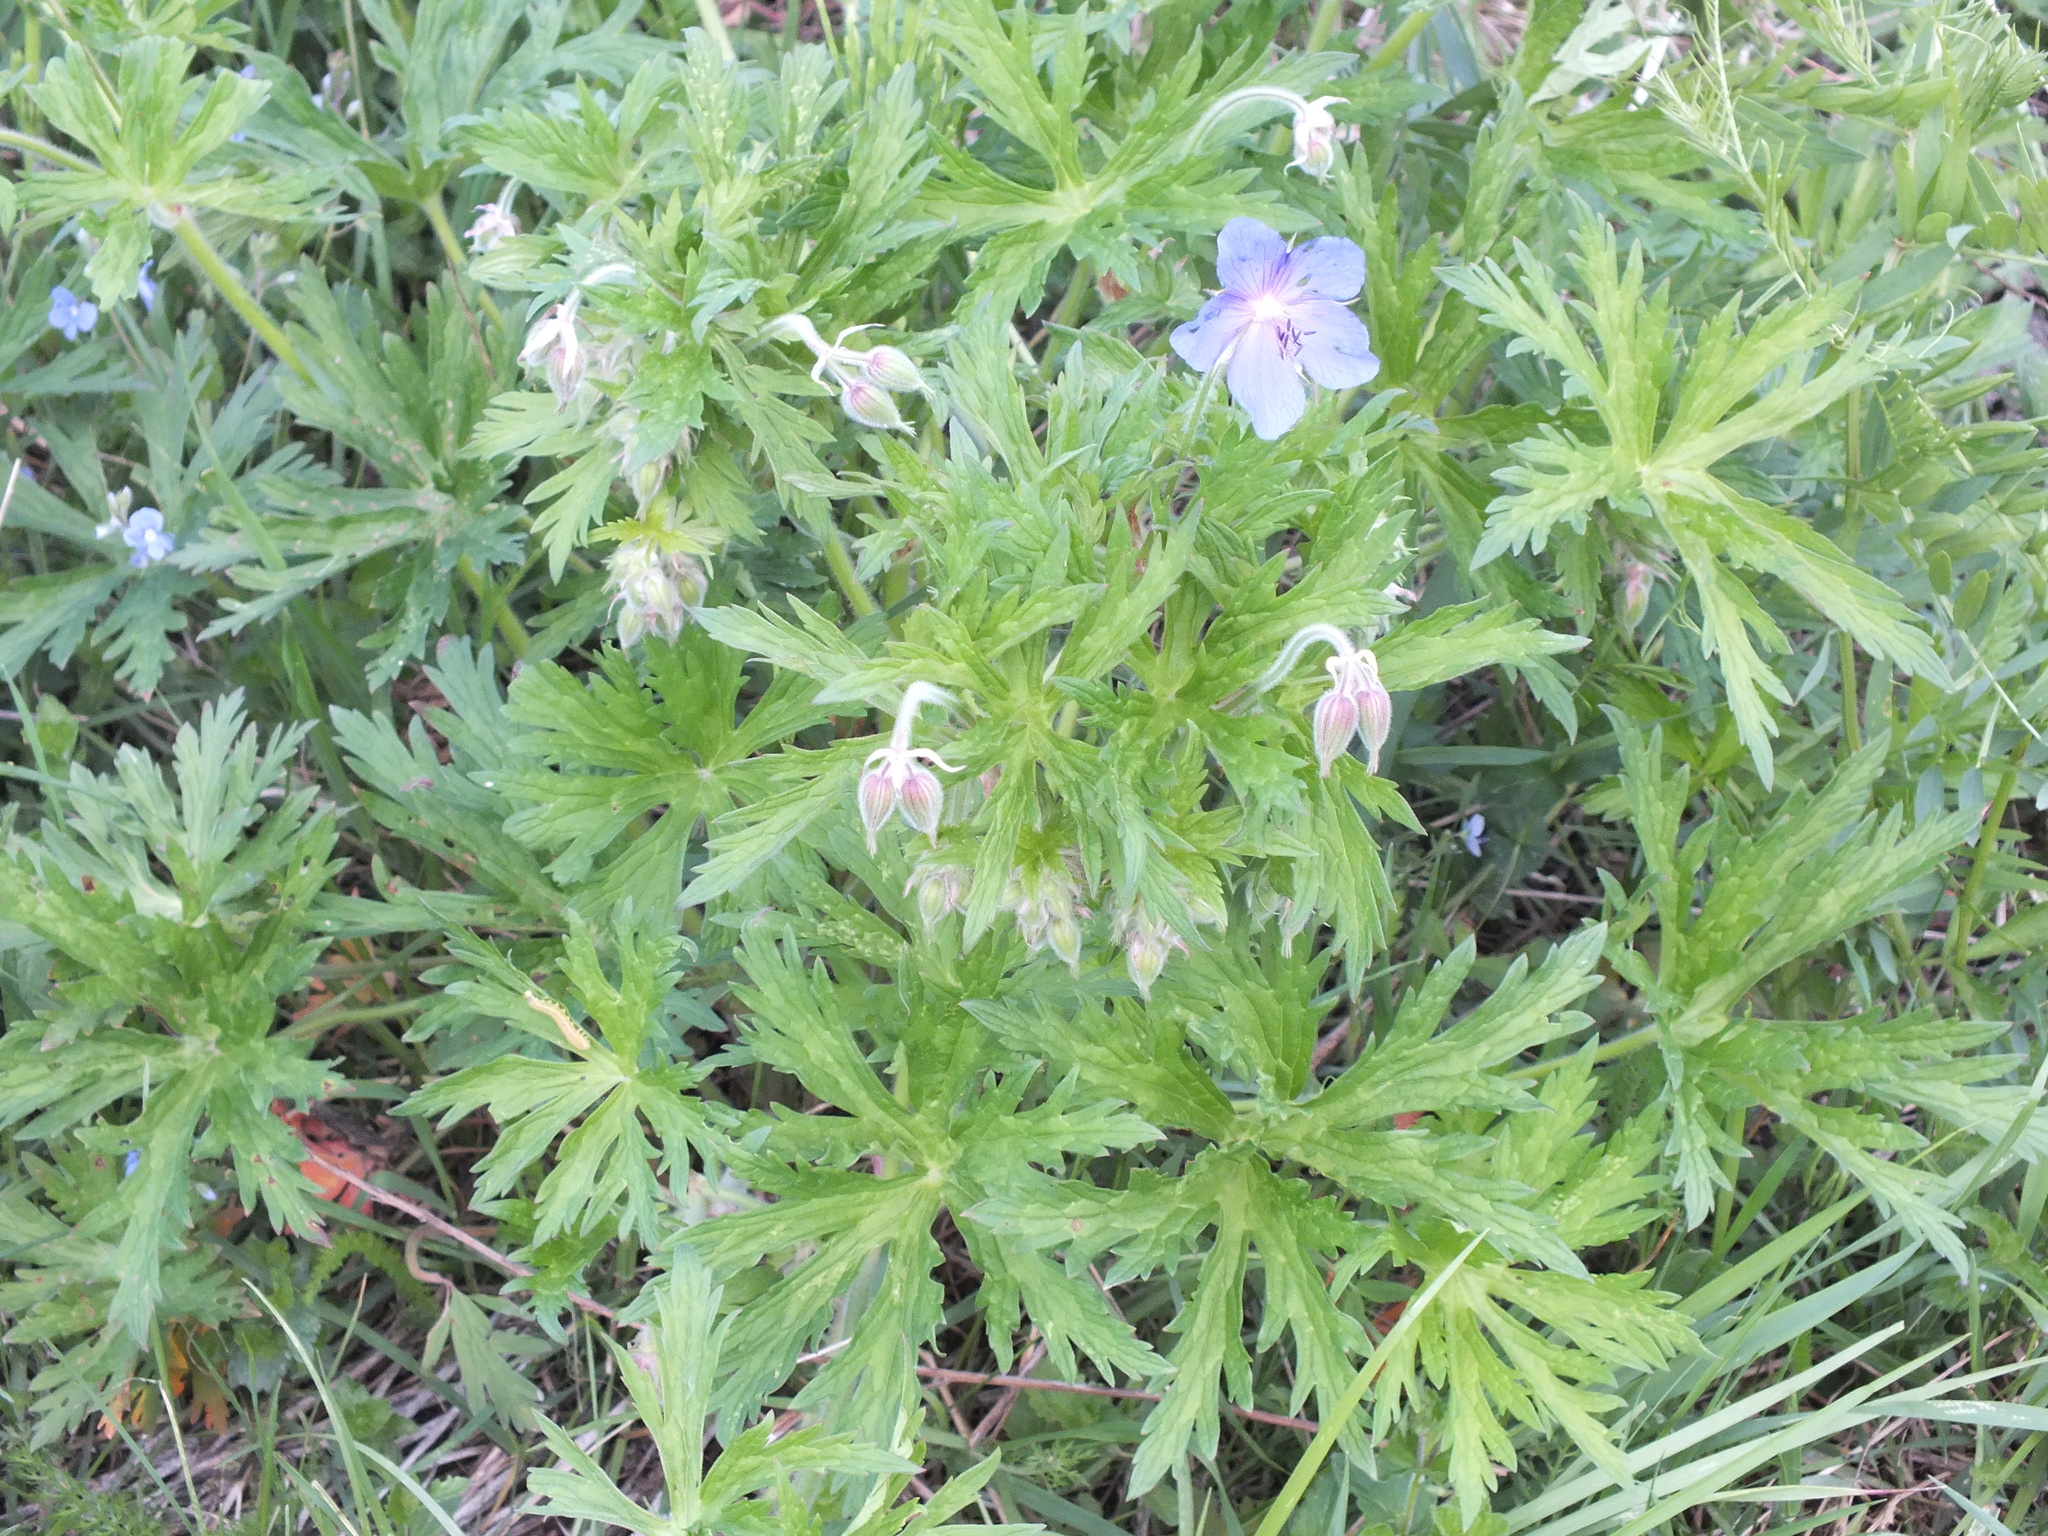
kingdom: Plantae
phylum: Tracheophyta
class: Magnoliopsida
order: Geraniales
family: Geraniaceae
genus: Geranium
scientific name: Geranium pratense
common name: Meadow crane's-bill
